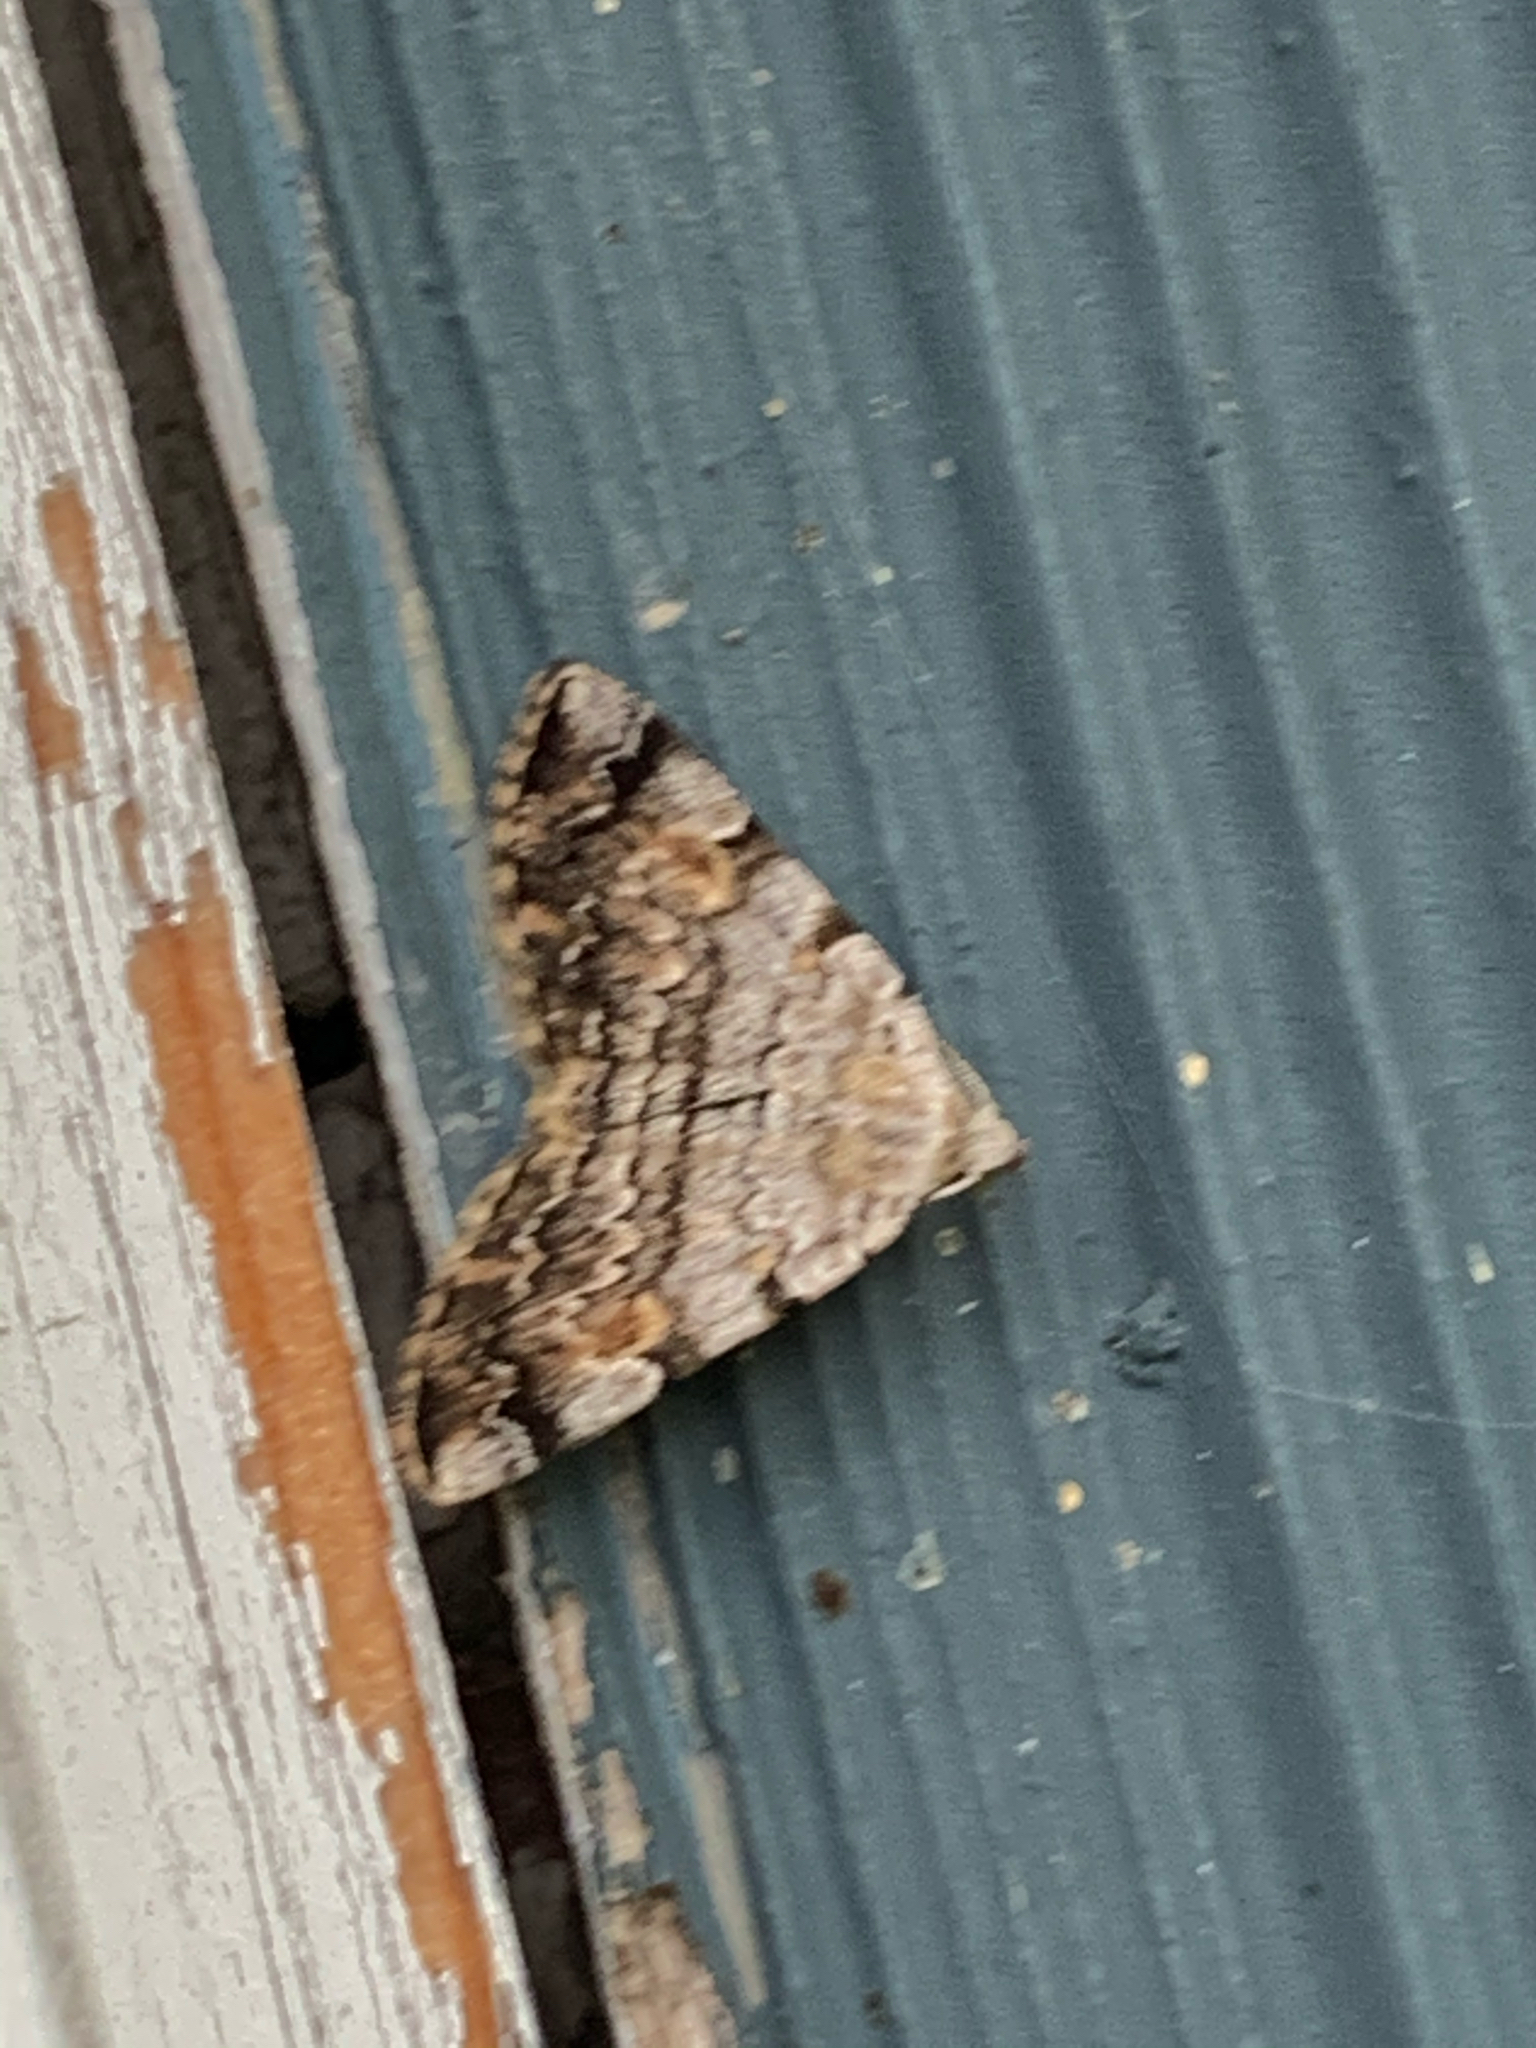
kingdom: Animalia
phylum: Arthropoda
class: Insecta
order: Lepidoptera
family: Erebidae
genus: Idia
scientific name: Idia americalis
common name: American idia moth
